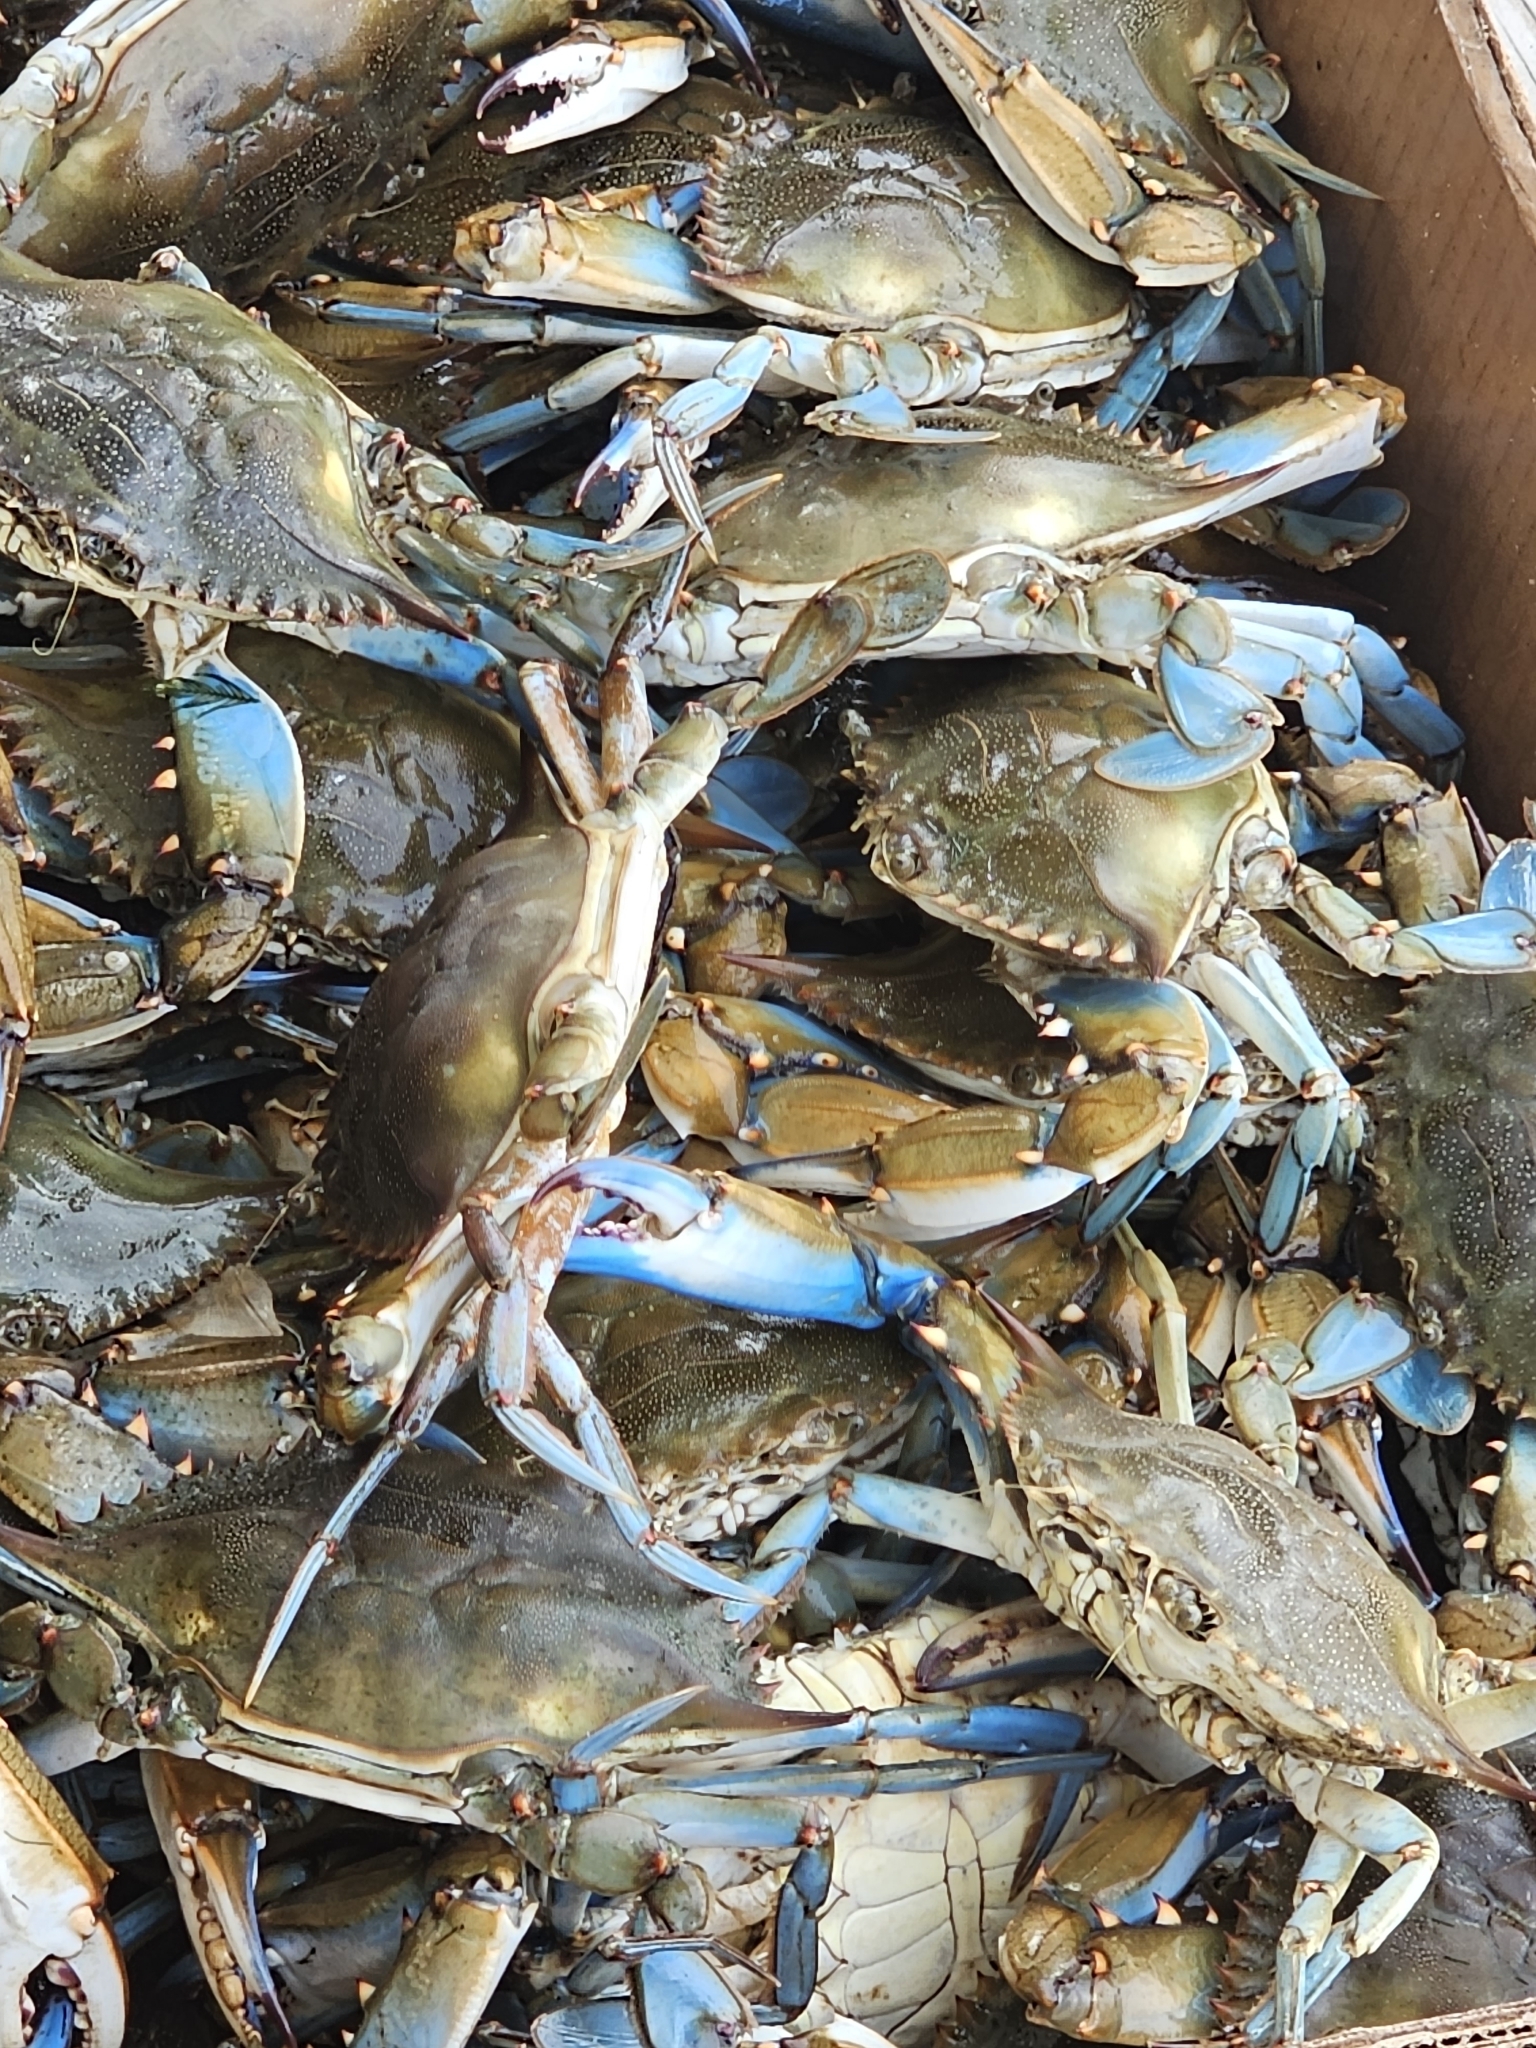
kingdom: Animalia
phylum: Arthropoda
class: Malacostraca
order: Decapoda
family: Portunidae
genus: Callinectes
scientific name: Callinectes sapidus
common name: Blue crab
